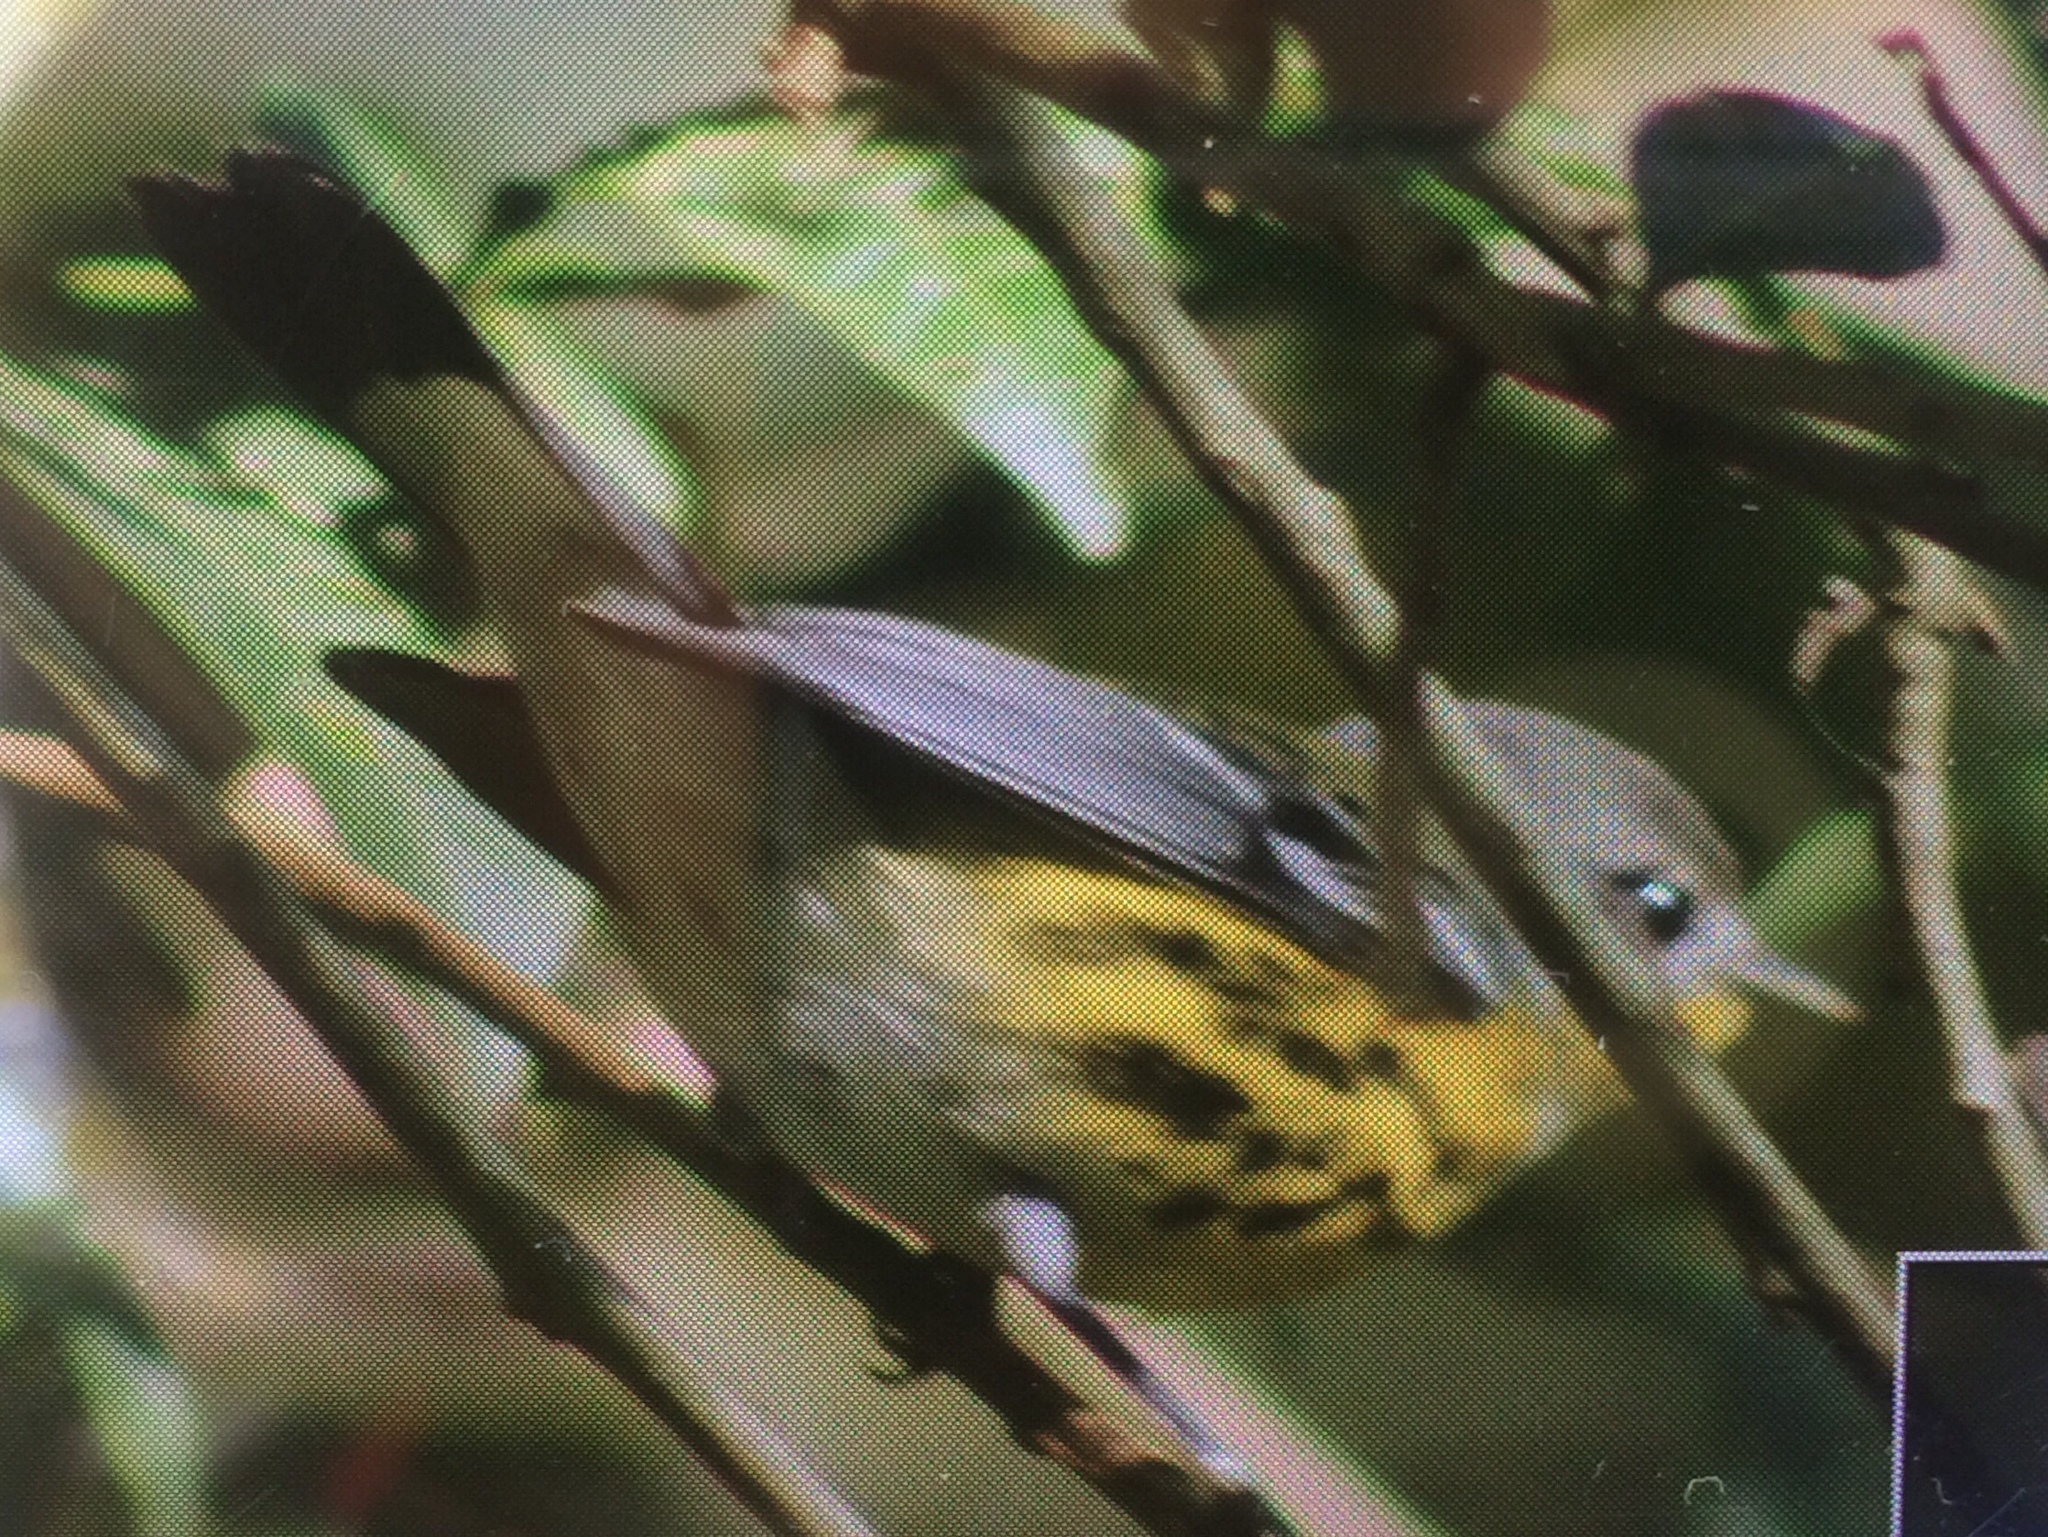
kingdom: Animalia
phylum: Chordata
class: Aves
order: Passeriformes
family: Parulidae
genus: Setophaga
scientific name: Setophaga magnolia
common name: Magnolia warbler
